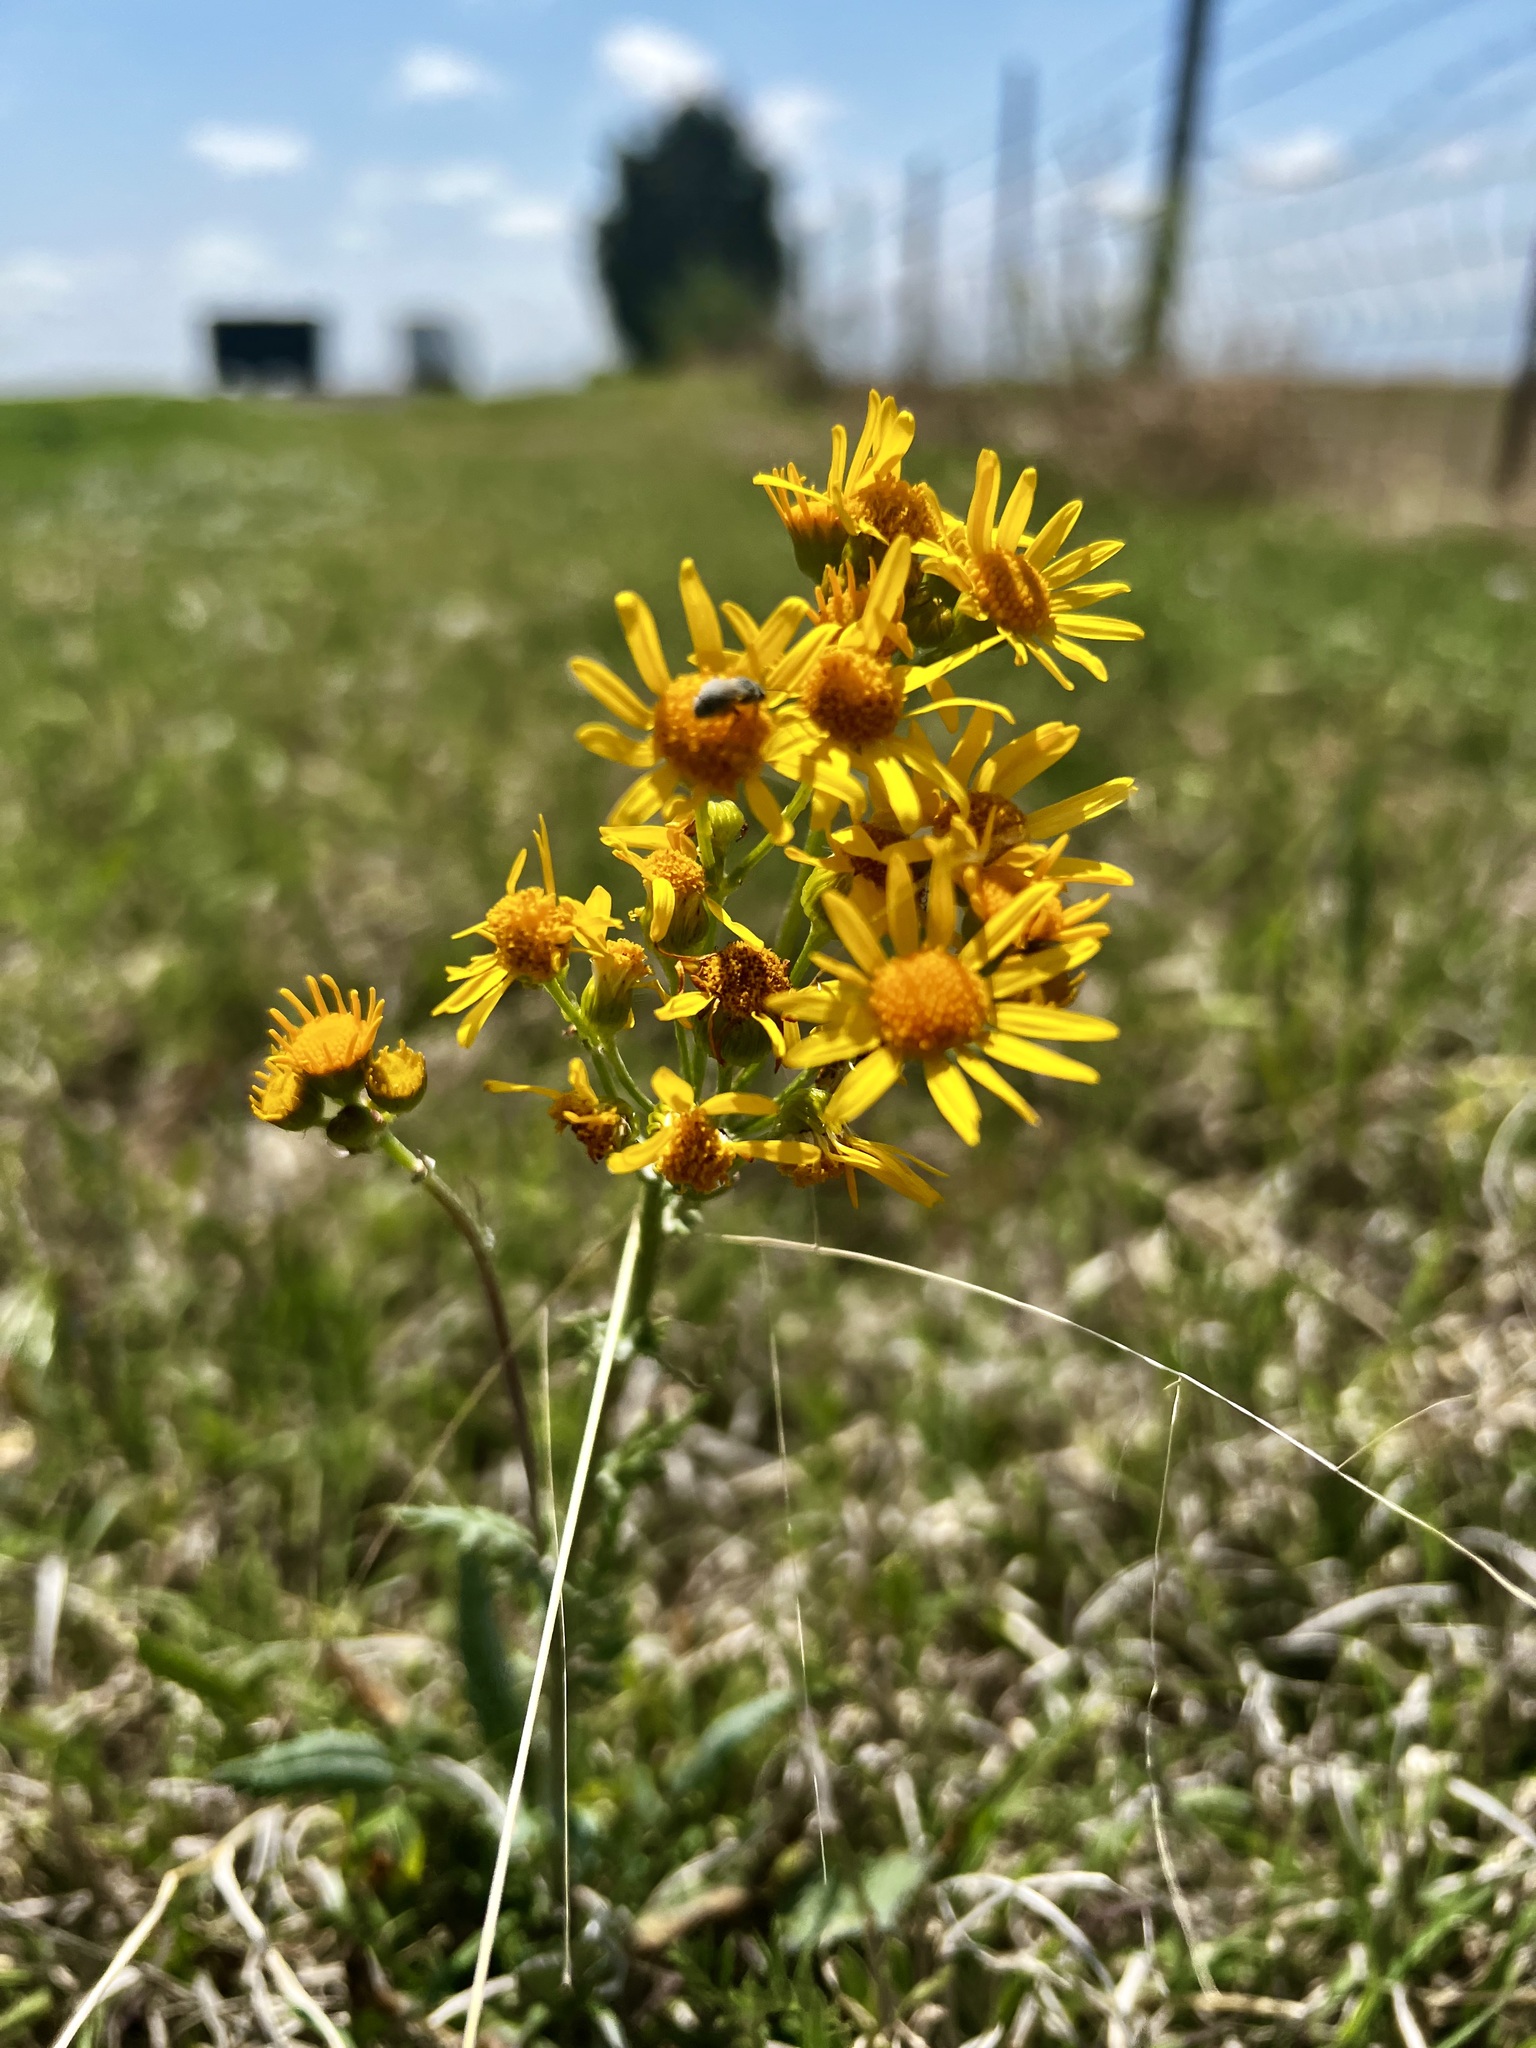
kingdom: Plantae
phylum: Tracheophyta
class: Magnoliopsida
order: Asterales
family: Asteraceae
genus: Packera
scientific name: Packera plattensis
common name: Prairie groundsel
